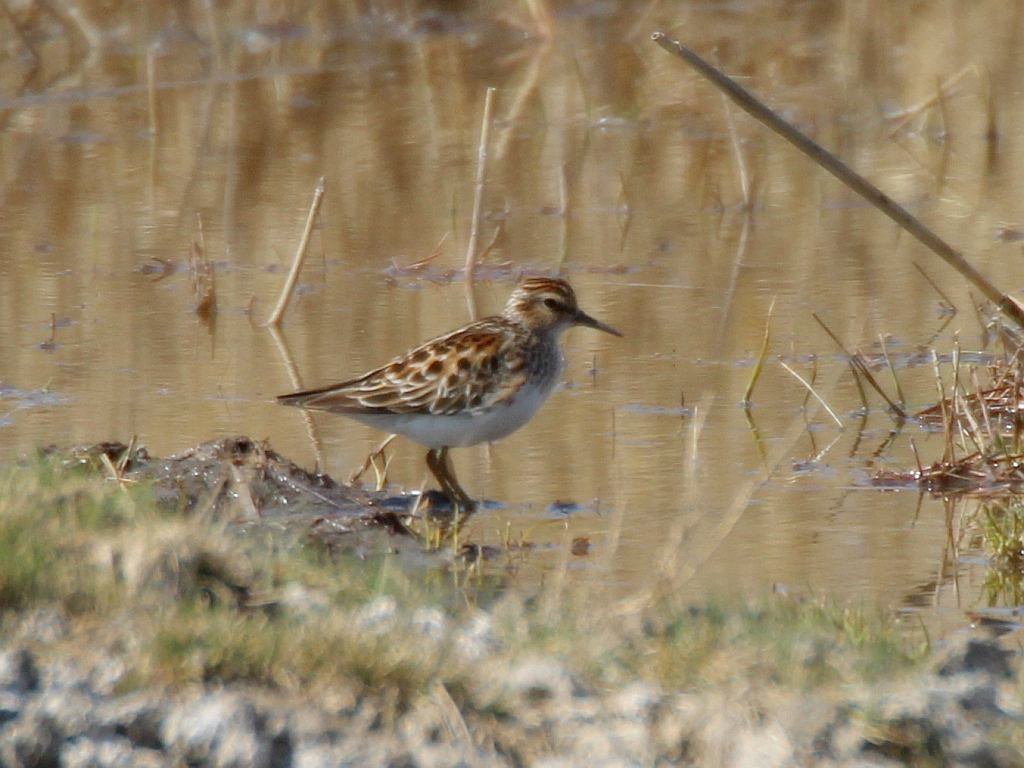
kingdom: Animalia
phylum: Chordata
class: Aves
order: Charadriiformes
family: Scolopacidae
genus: Calidris
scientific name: Calidris subminuta
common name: Long-toed stint
